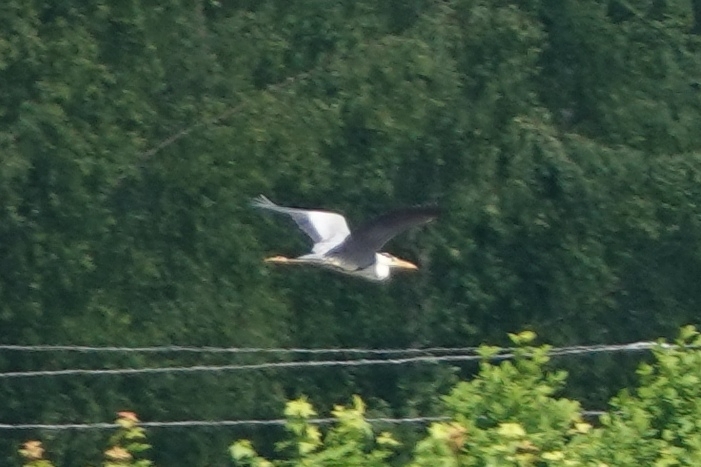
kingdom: Animalia
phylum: Chordata
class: Aves
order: Pelecaniformes
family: Ardeidae
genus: Ardea
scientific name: Ardea cinerea
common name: Grey heron
